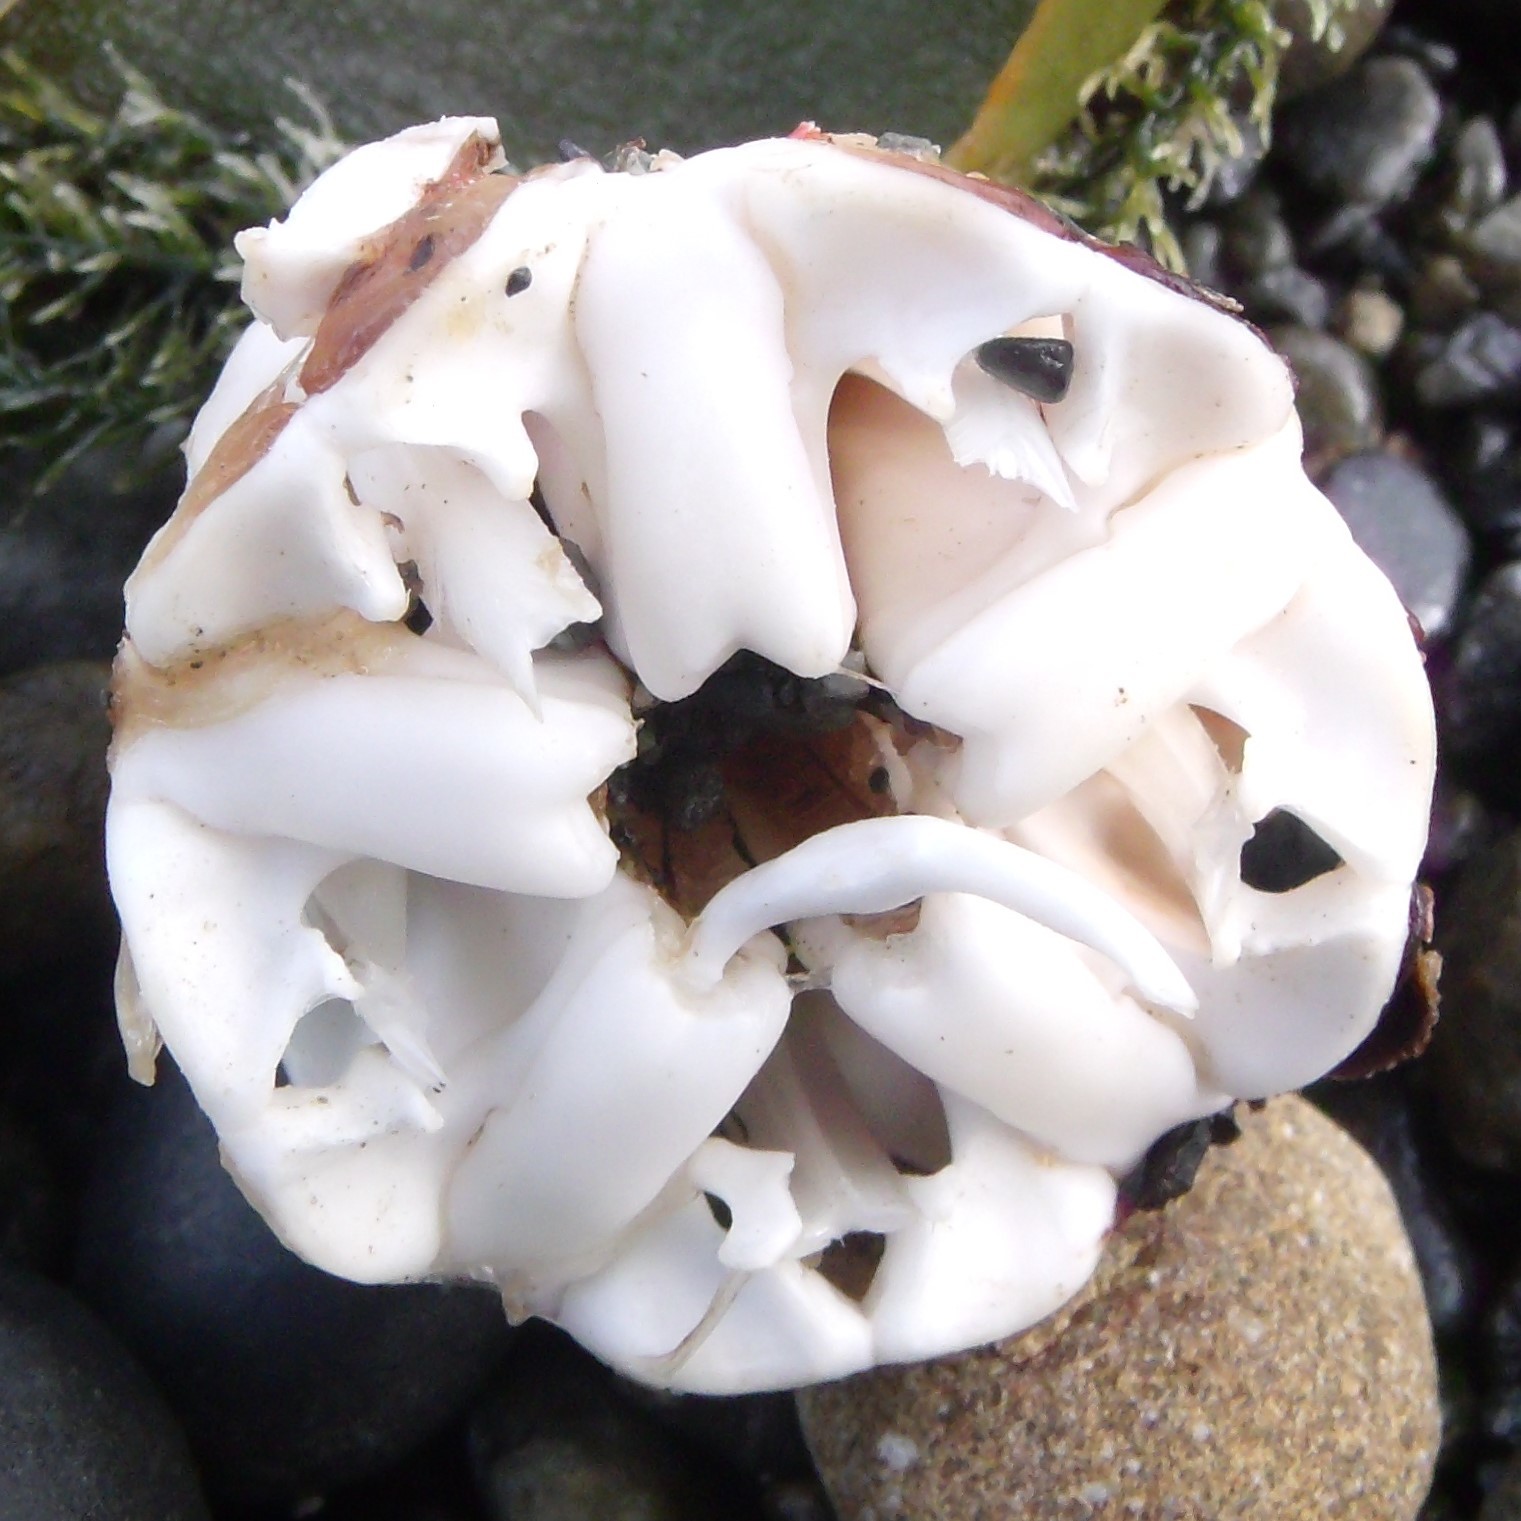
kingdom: Animalia
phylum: Echinodermata
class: Echinoidea
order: Camarodonta
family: Echinometridae
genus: Evechinus
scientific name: Evechinus chloroticus
